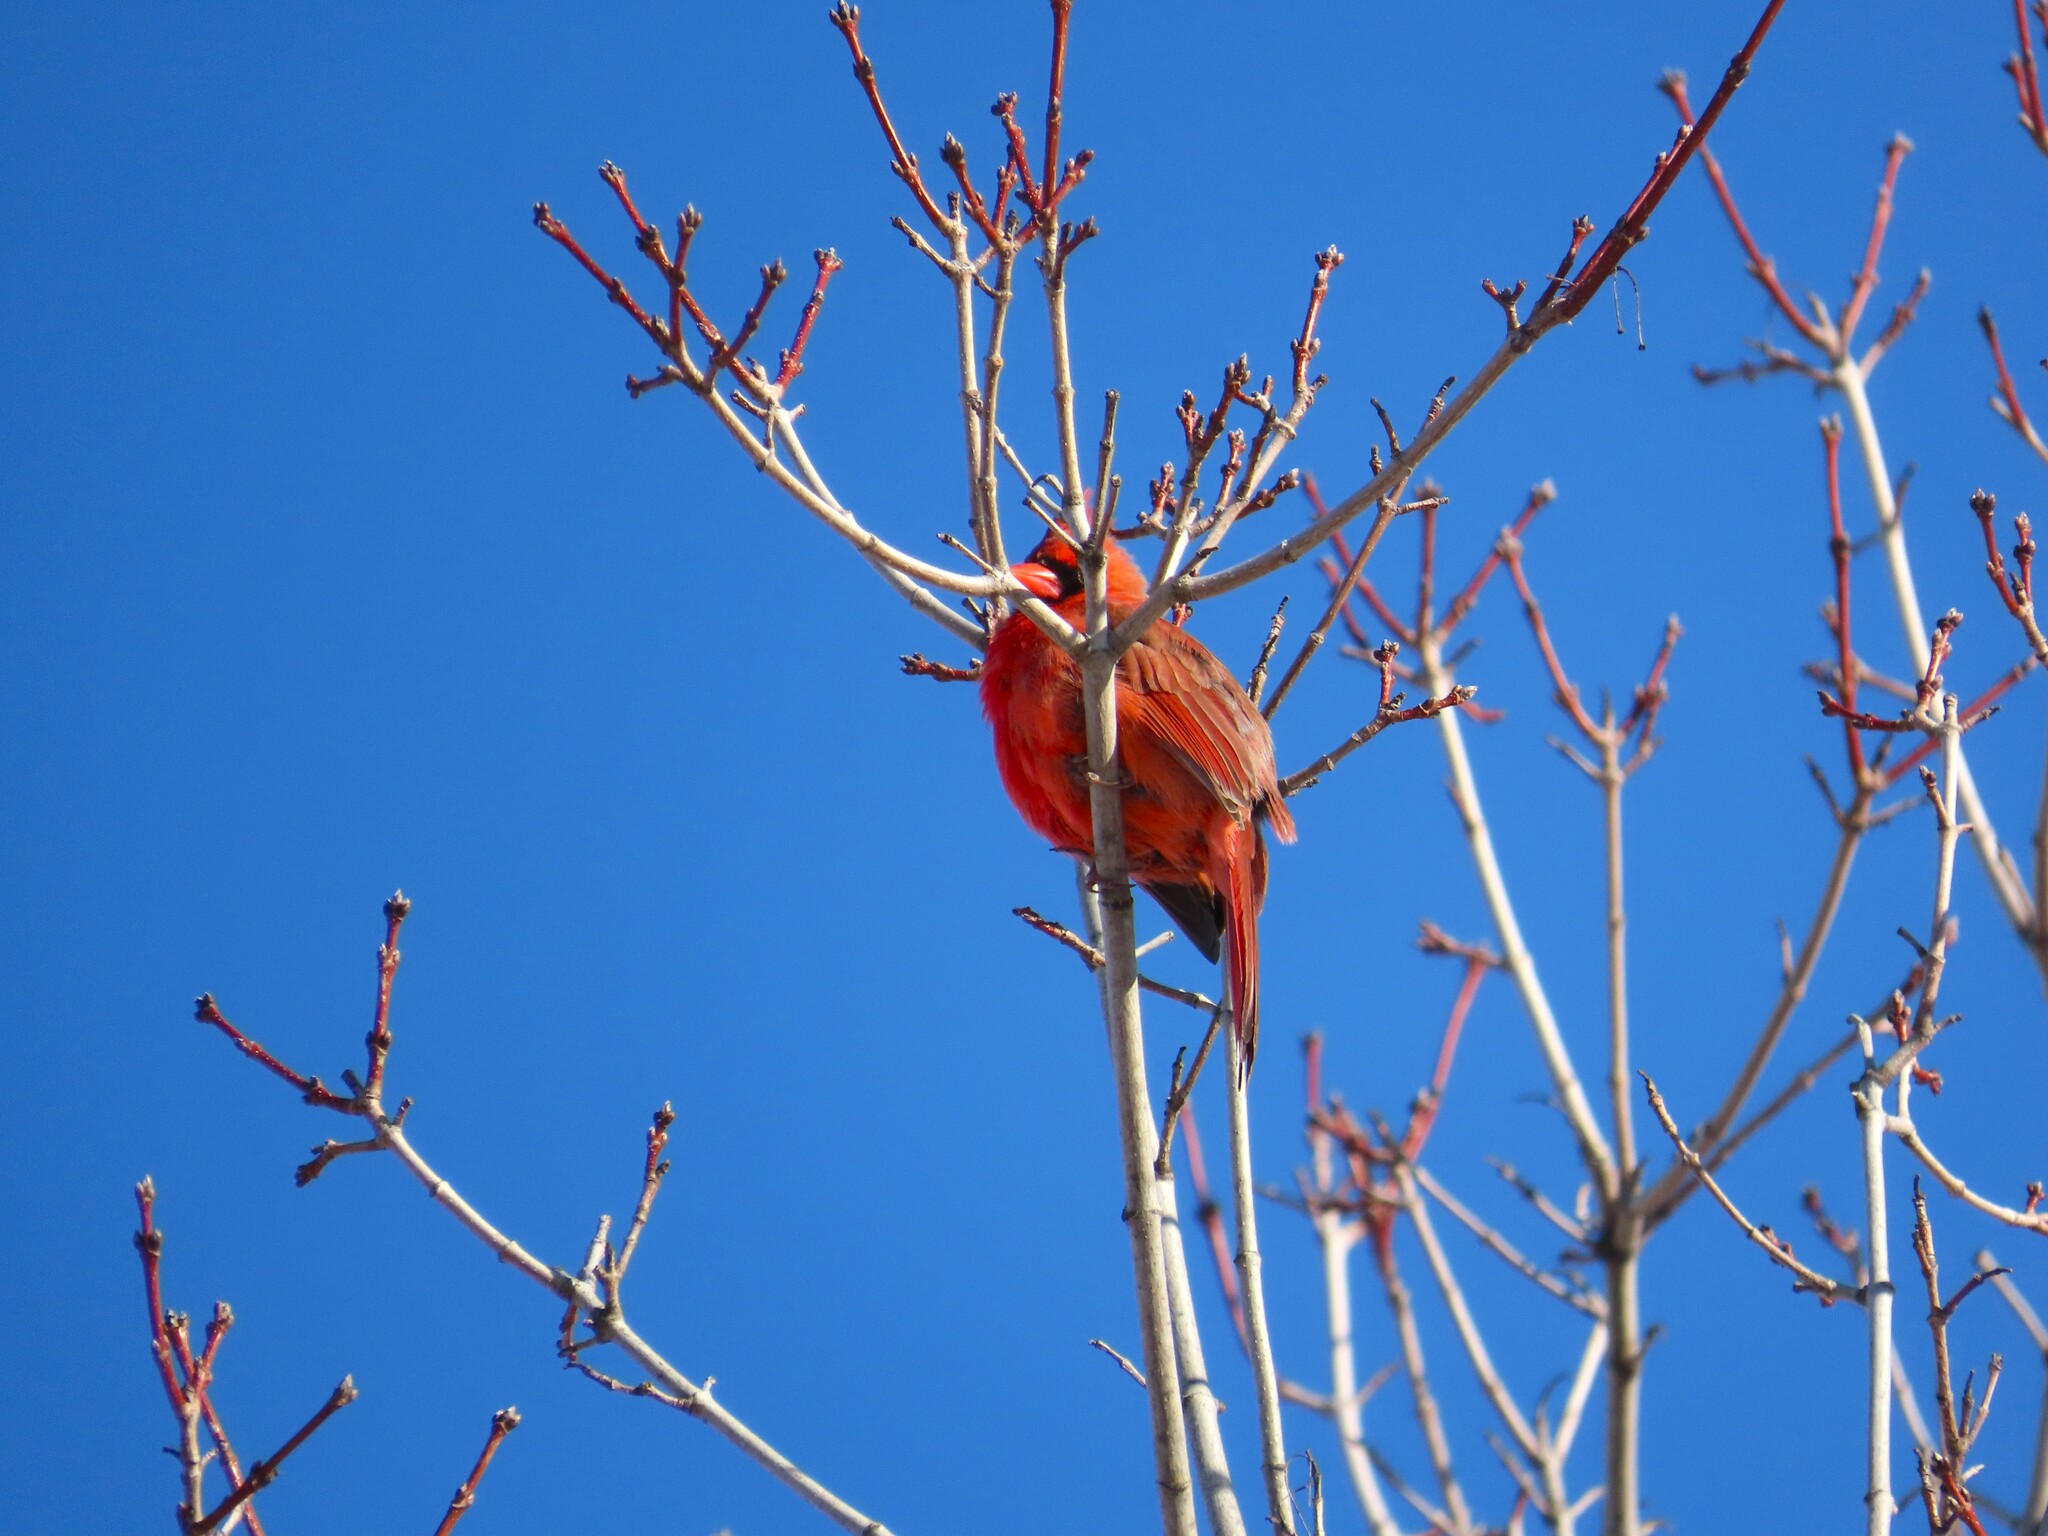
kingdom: Animalia
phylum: Chordata
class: Aves
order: Passeriformes
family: Cardinalidae
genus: Cardinalis
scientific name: Cardinalis cardinalis
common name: Northern cardinal
